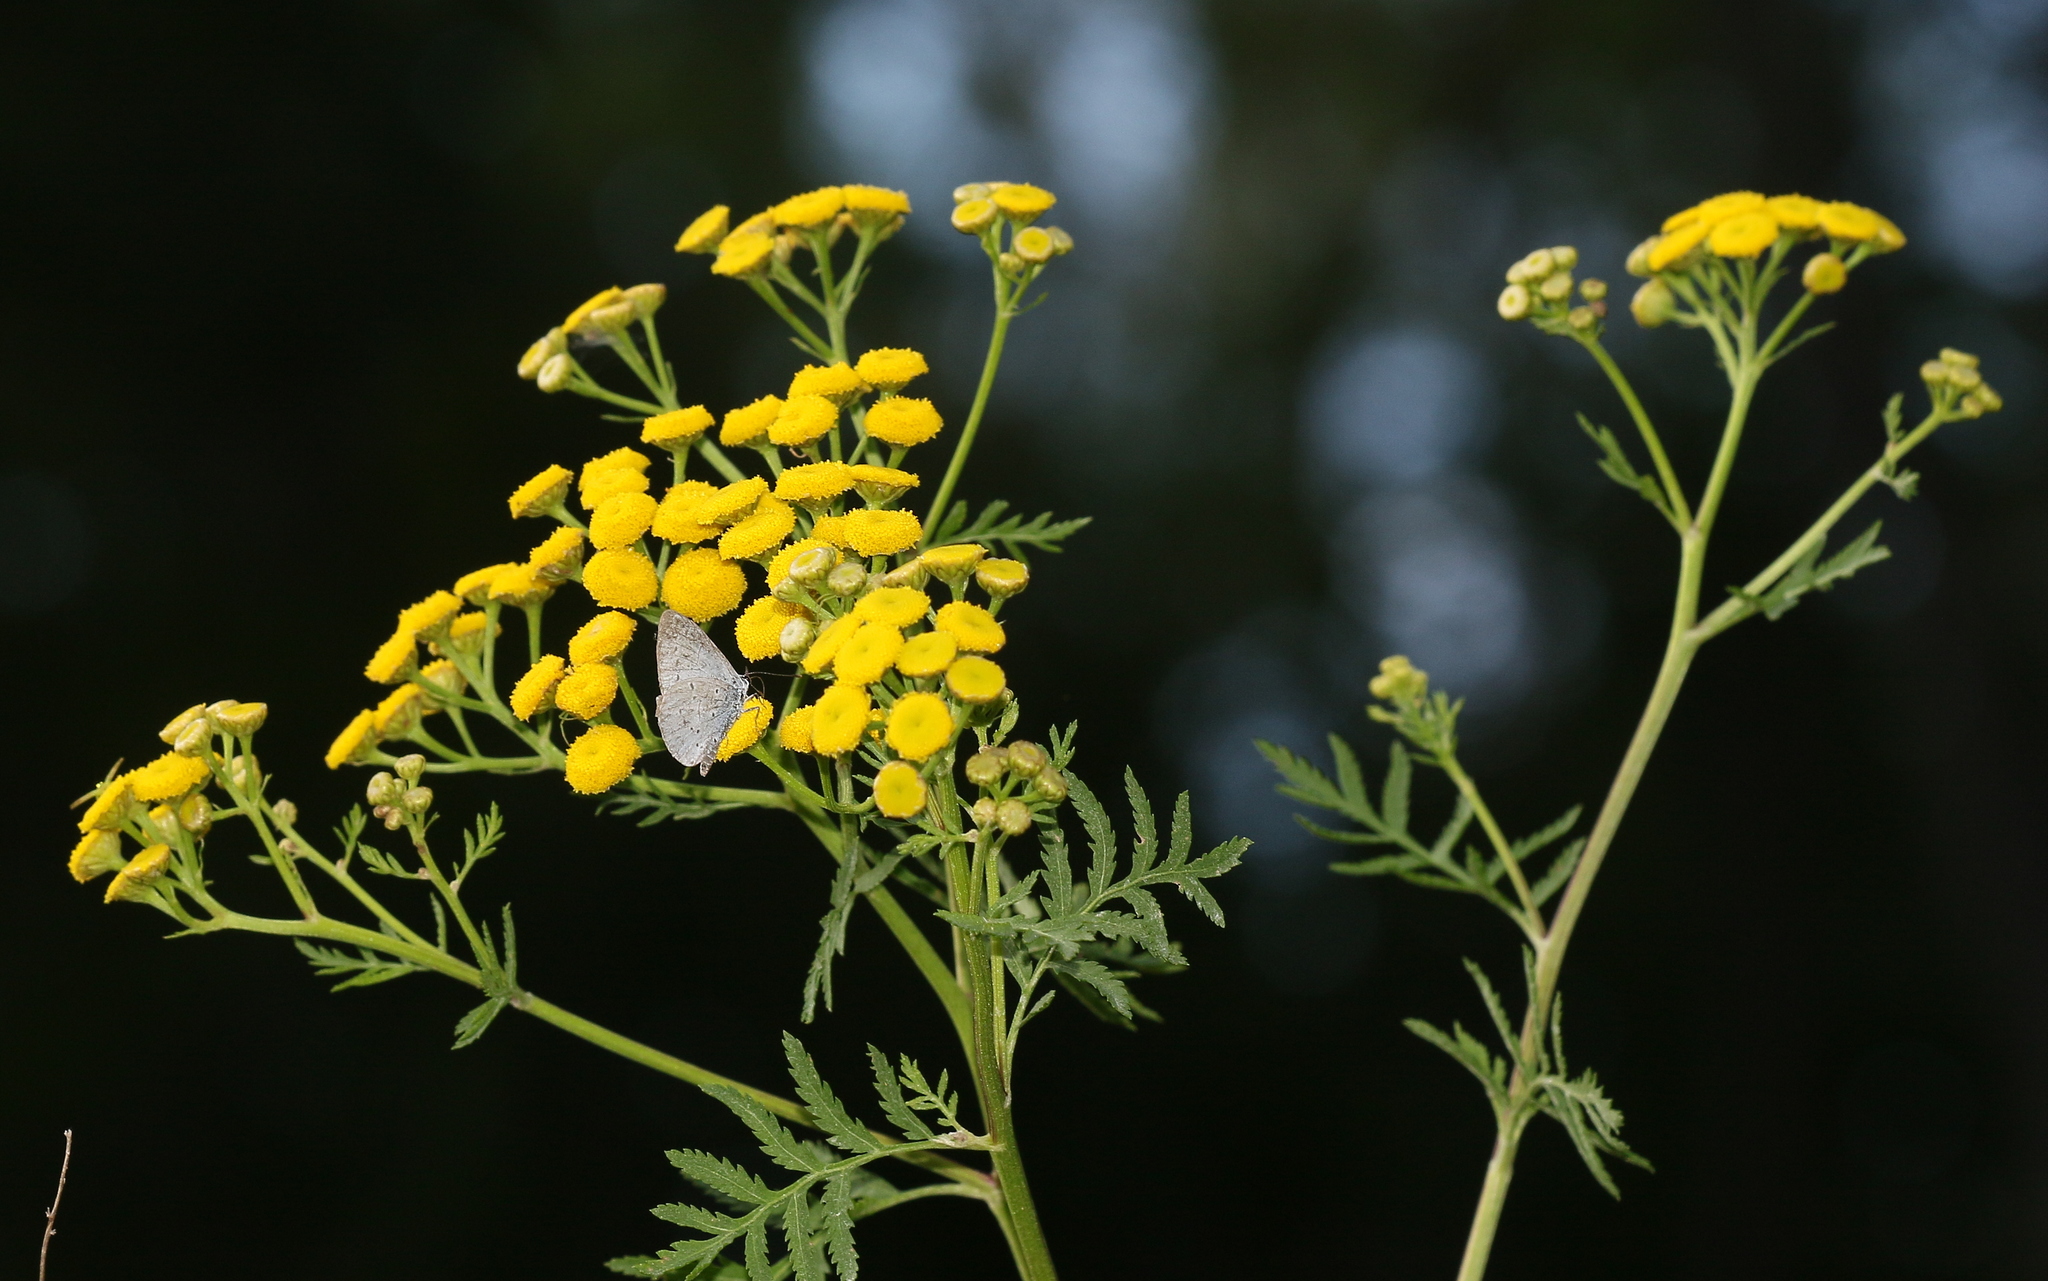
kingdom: Animalia
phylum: Arthropoda
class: Insecta
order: Lepidoptera
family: Lycaenidae
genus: Celastrina
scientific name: Celastrina argiolus
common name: Holly blue
